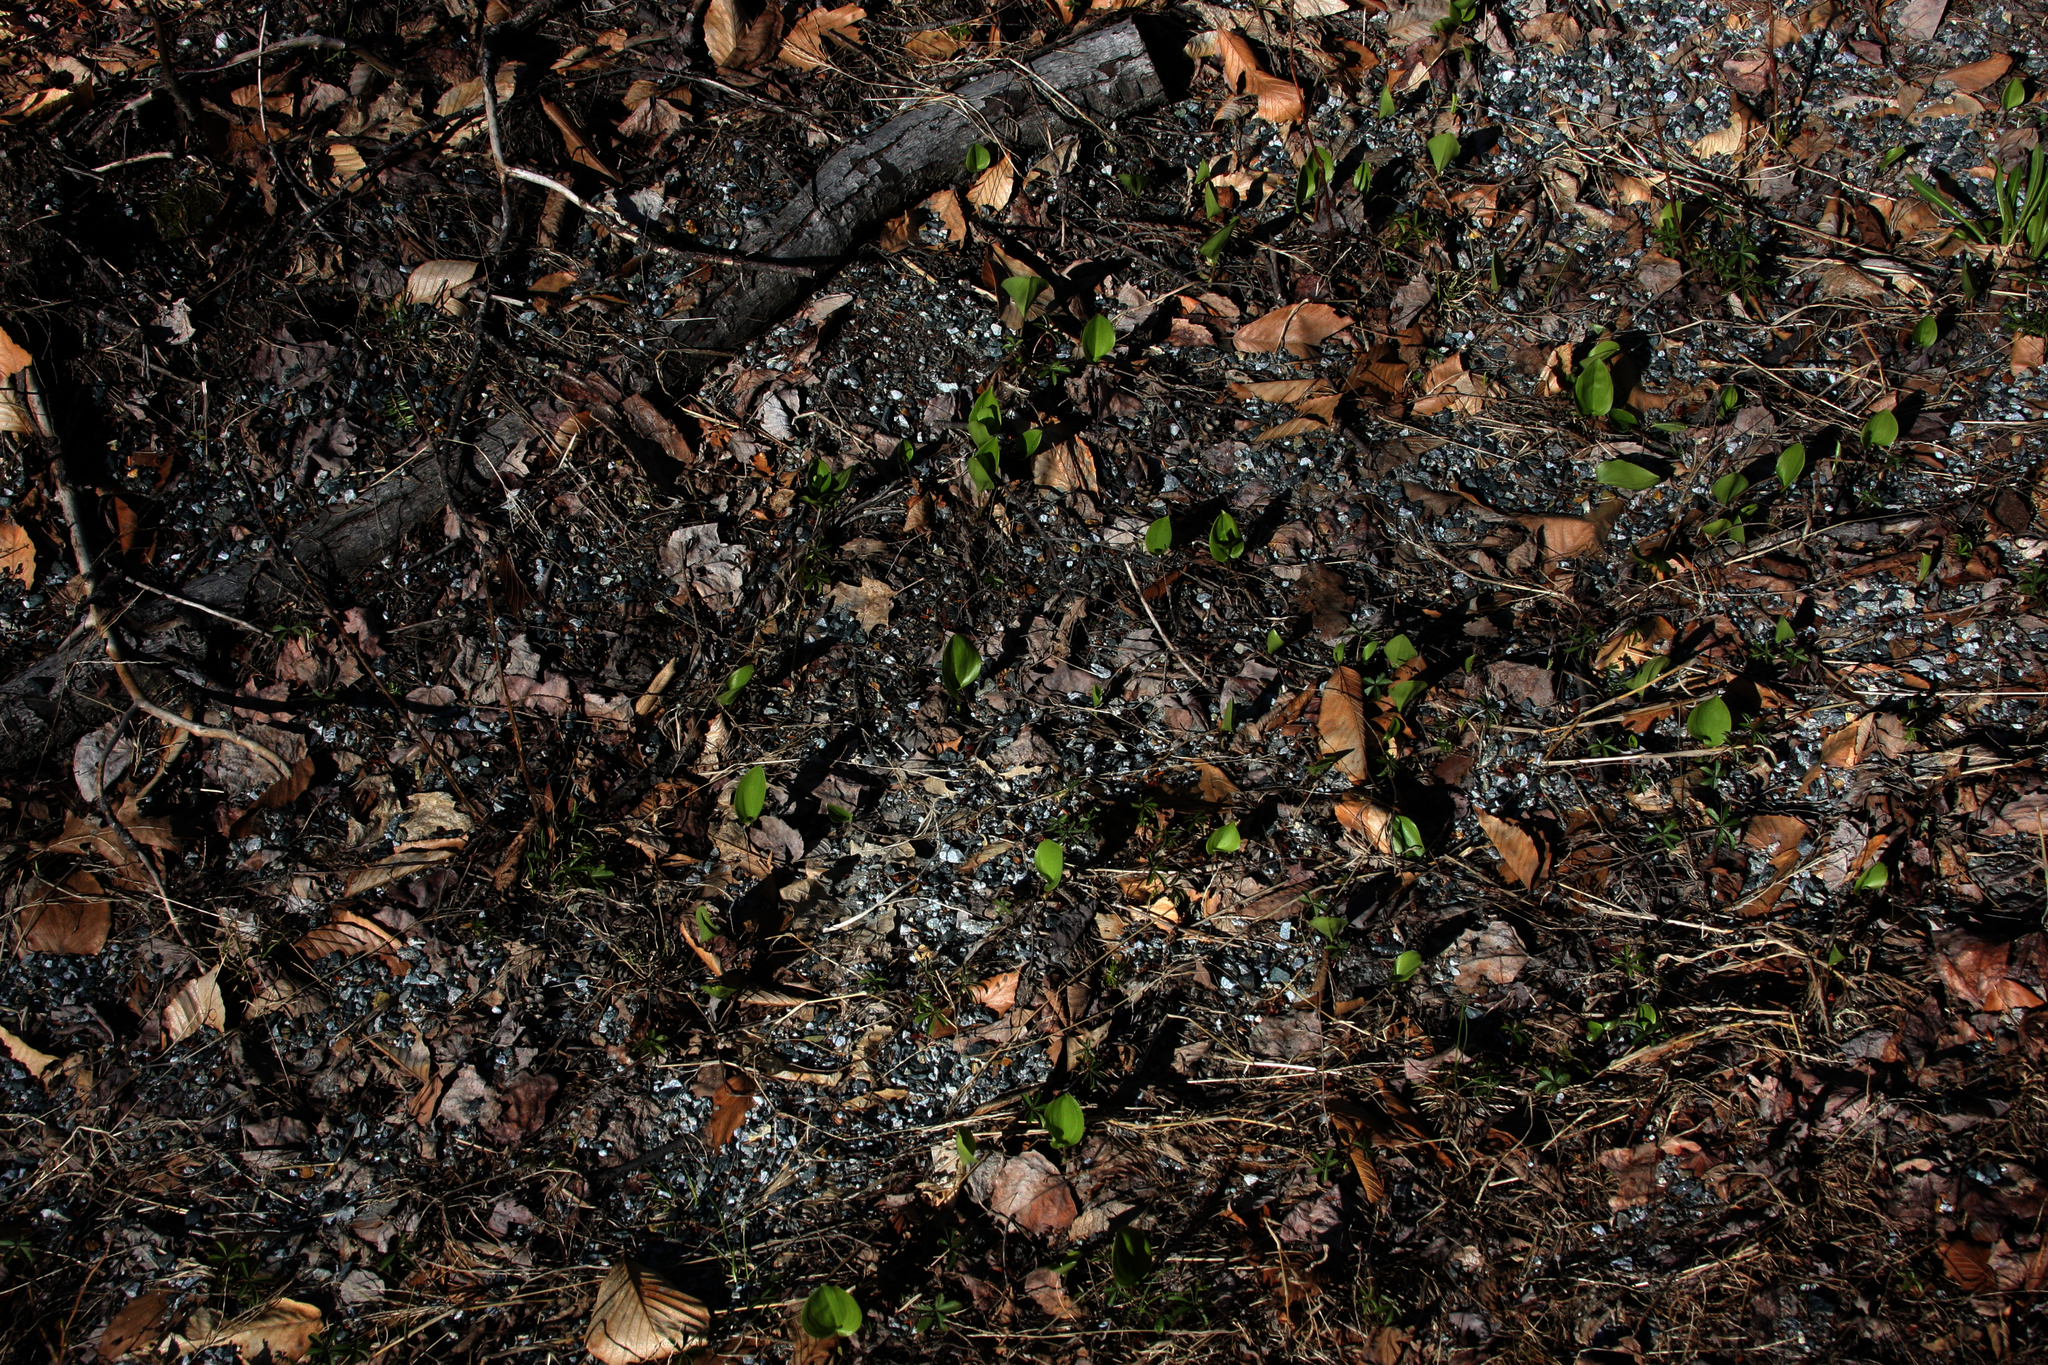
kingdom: Plantae
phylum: Tracheophyta
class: Liliopsida
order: Asparagales
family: Asparagaceae
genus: Maianthemum
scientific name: Maianthemum canadense
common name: False lily-of-the-valley
